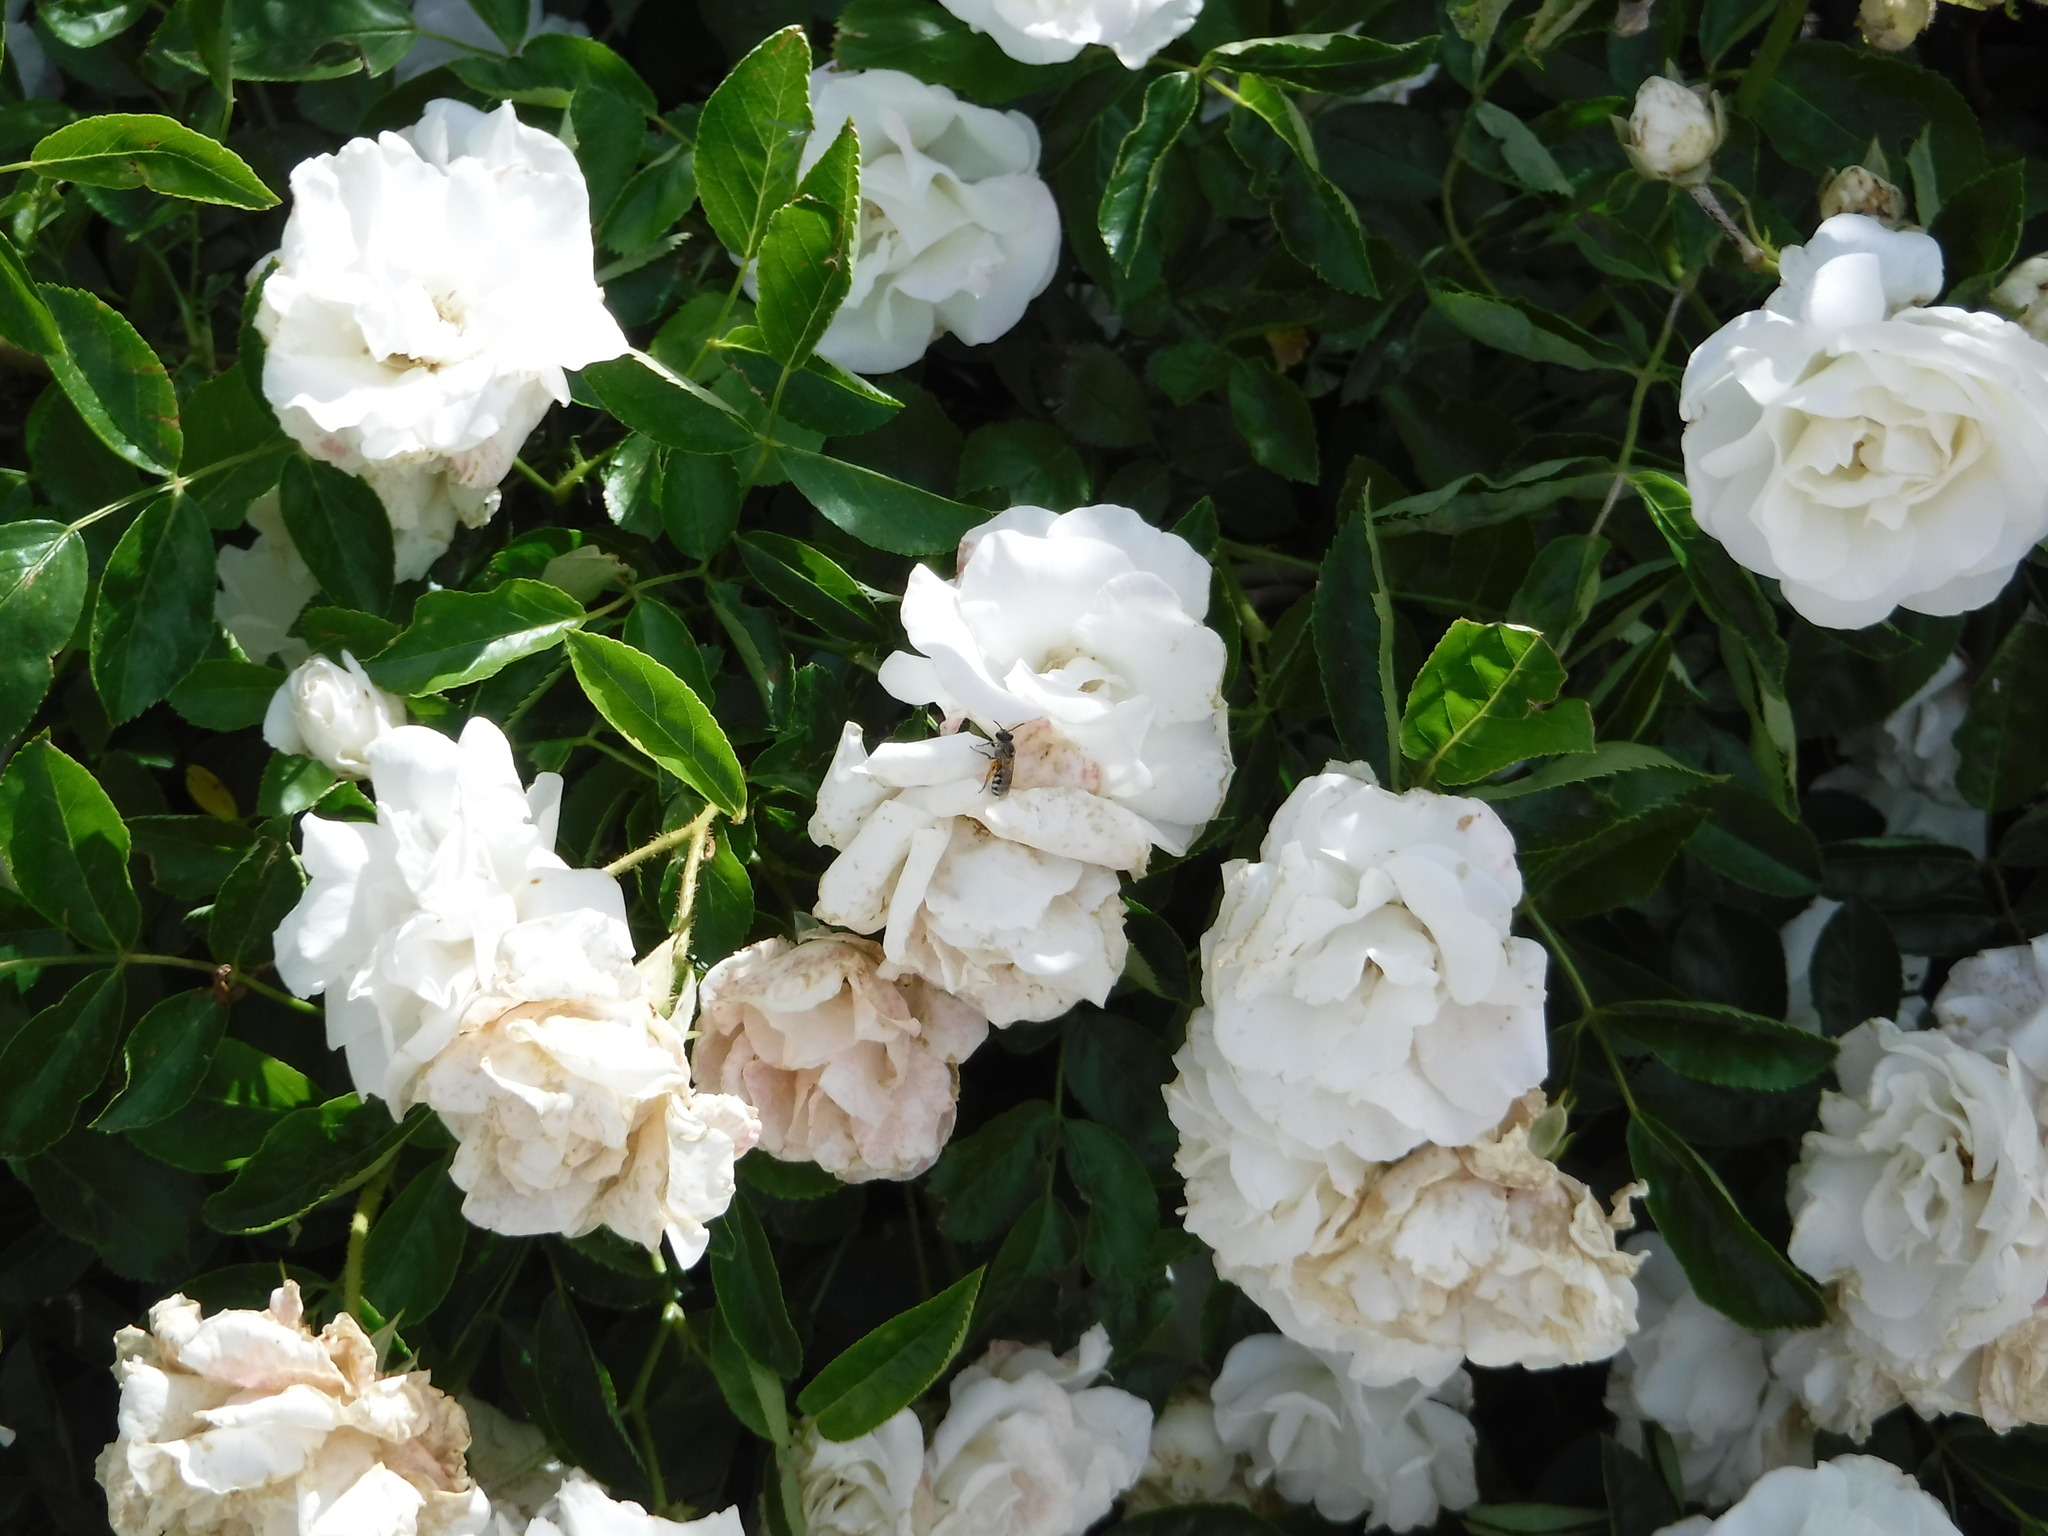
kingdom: Animalia
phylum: Arthropoda
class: Insecta
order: Hymenoptera
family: Halictidae
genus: Lasioglossum
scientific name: Lasioglossum sisymbrii
